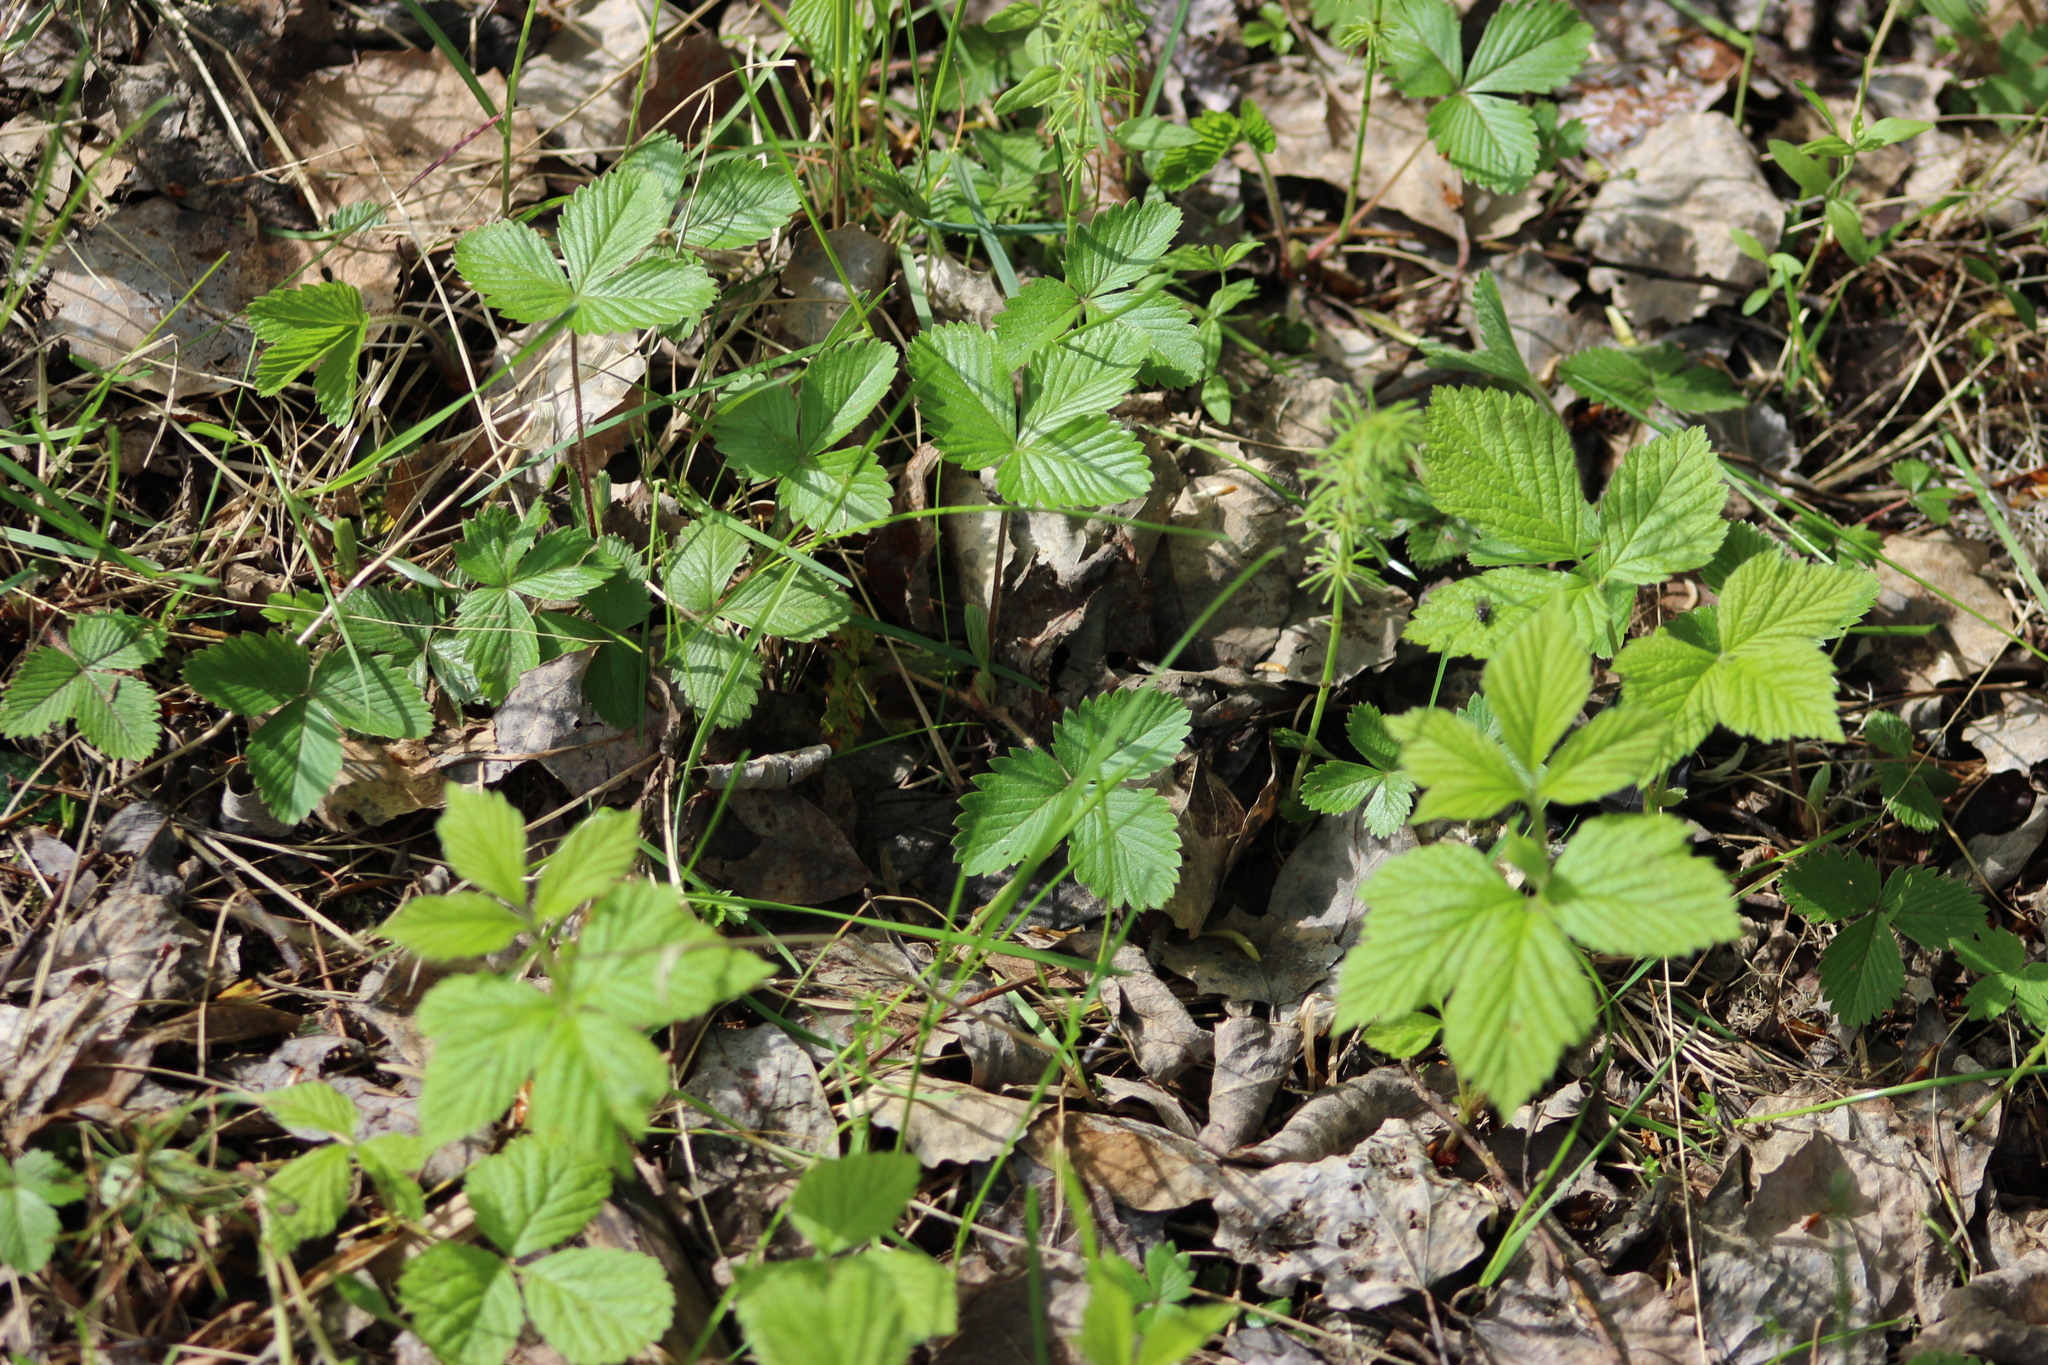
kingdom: Plantae
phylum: Tracheophyta
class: Magnoliopsida
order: Rosales
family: Rosaceae
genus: Fragaria
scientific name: Fragaria vesca
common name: Wild strawberry
